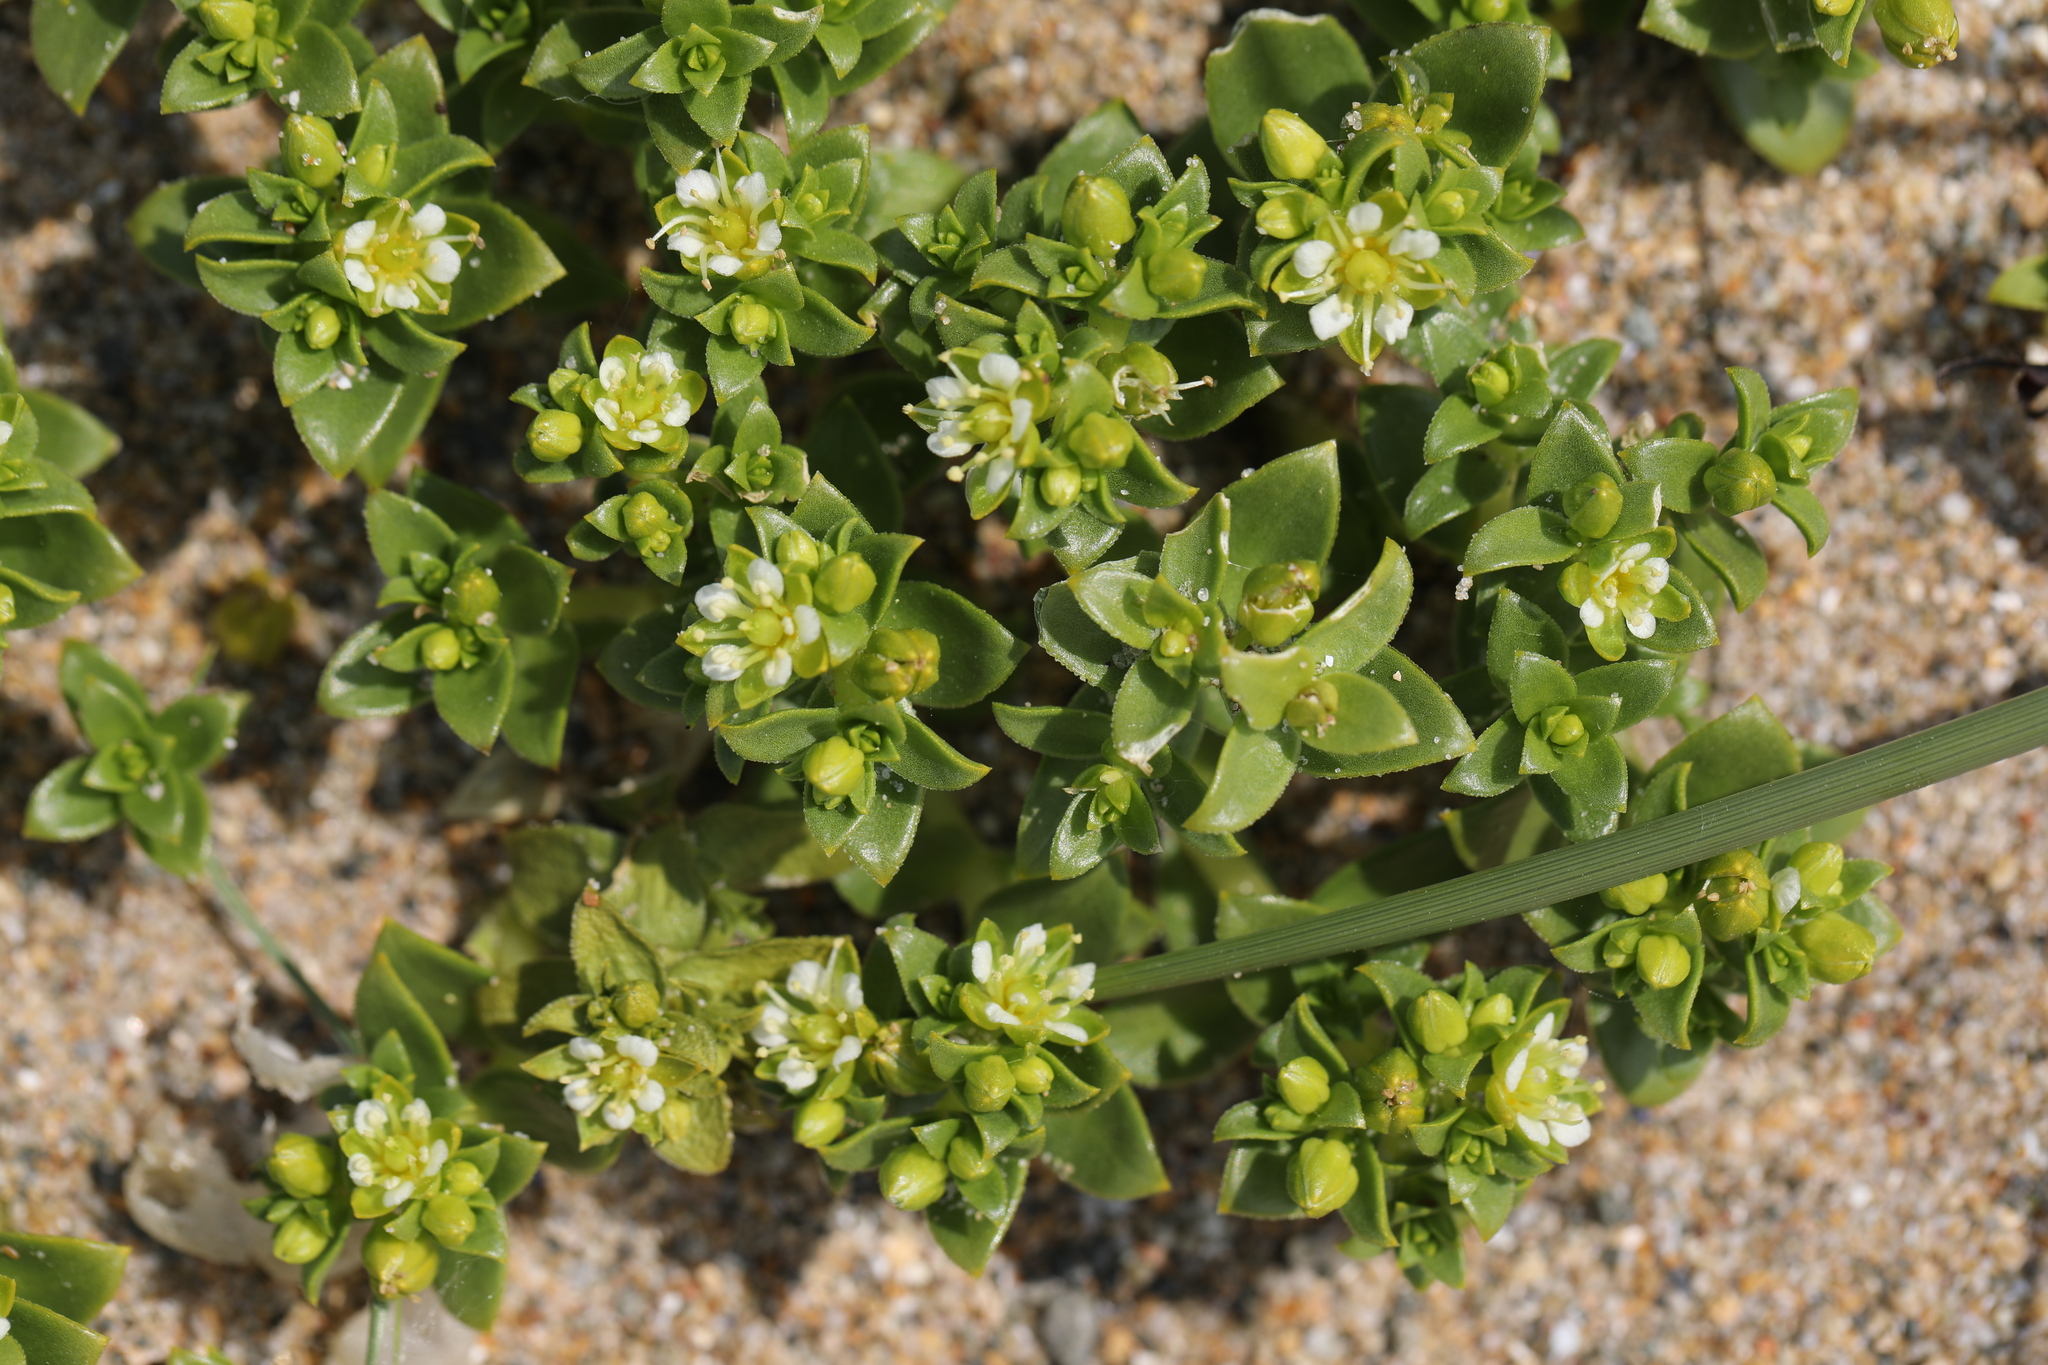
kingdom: Plantae
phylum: Tracheophyta
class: Magnoliopsida
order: Caryophyllales
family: Caryophyllaceae
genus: Honckenya
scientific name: Honckenya peploides
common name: Sea sandwort
